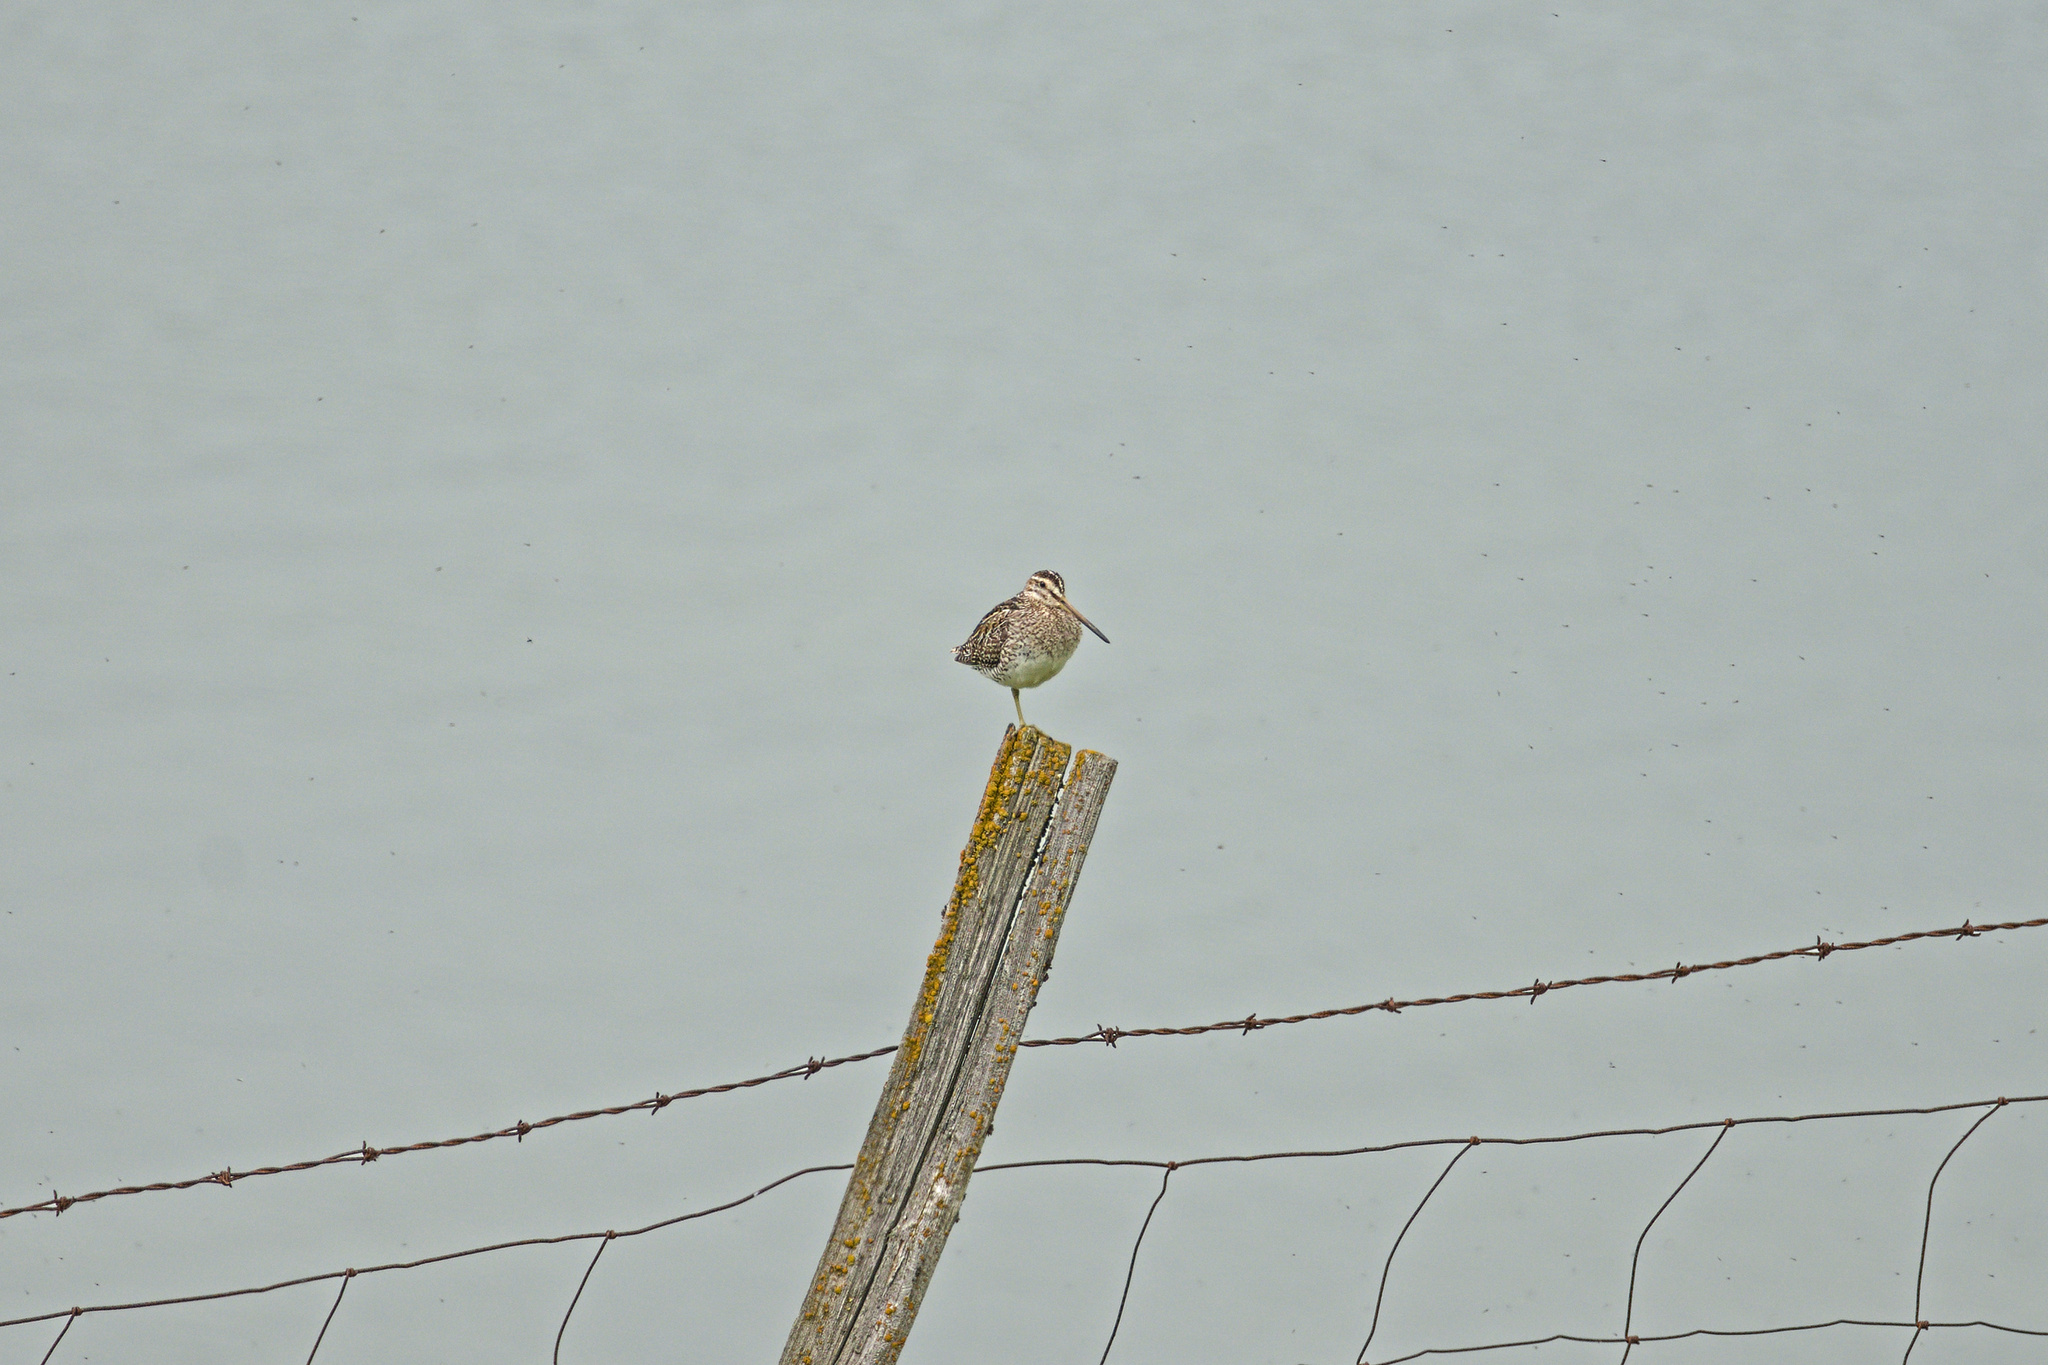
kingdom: Animalia
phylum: Chordata
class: Aves
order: Charadriiformes
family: Scolopacidae
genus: Gallinago
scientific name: Gallinago gallinago
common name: Common snipe
